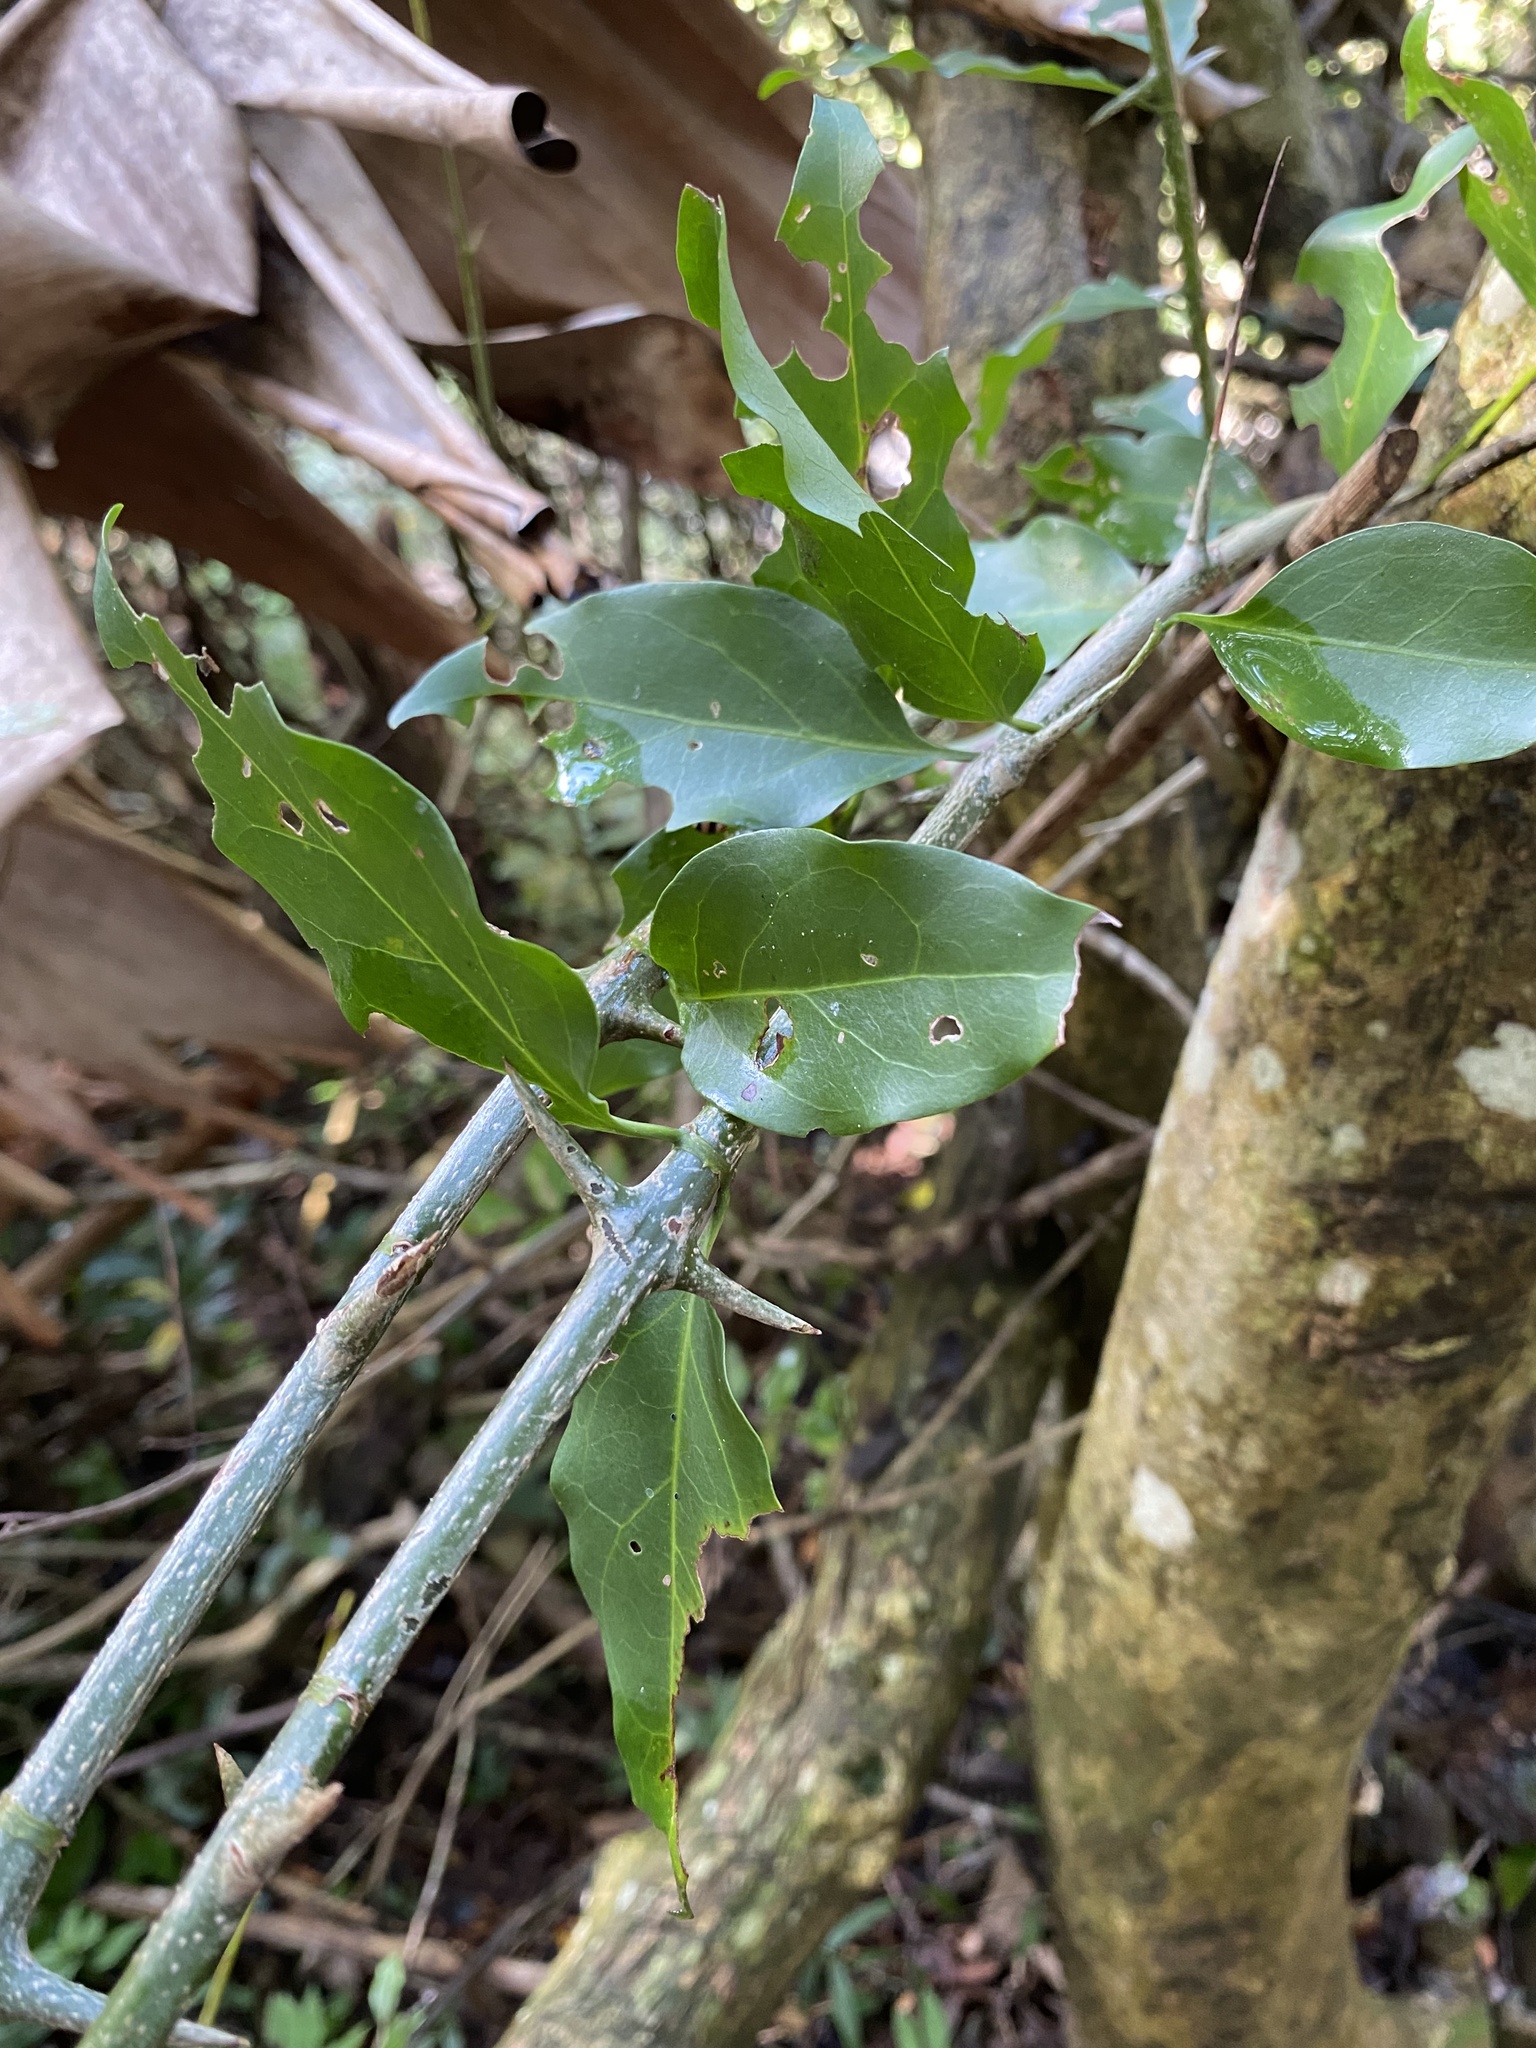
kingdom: Plantae
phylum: Tracheophyta
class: Magnoliopsida
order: Gentianales
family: Rubiaceae
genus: Canthium
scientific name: Canthium inerme
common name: Unarmed turkey-berry
